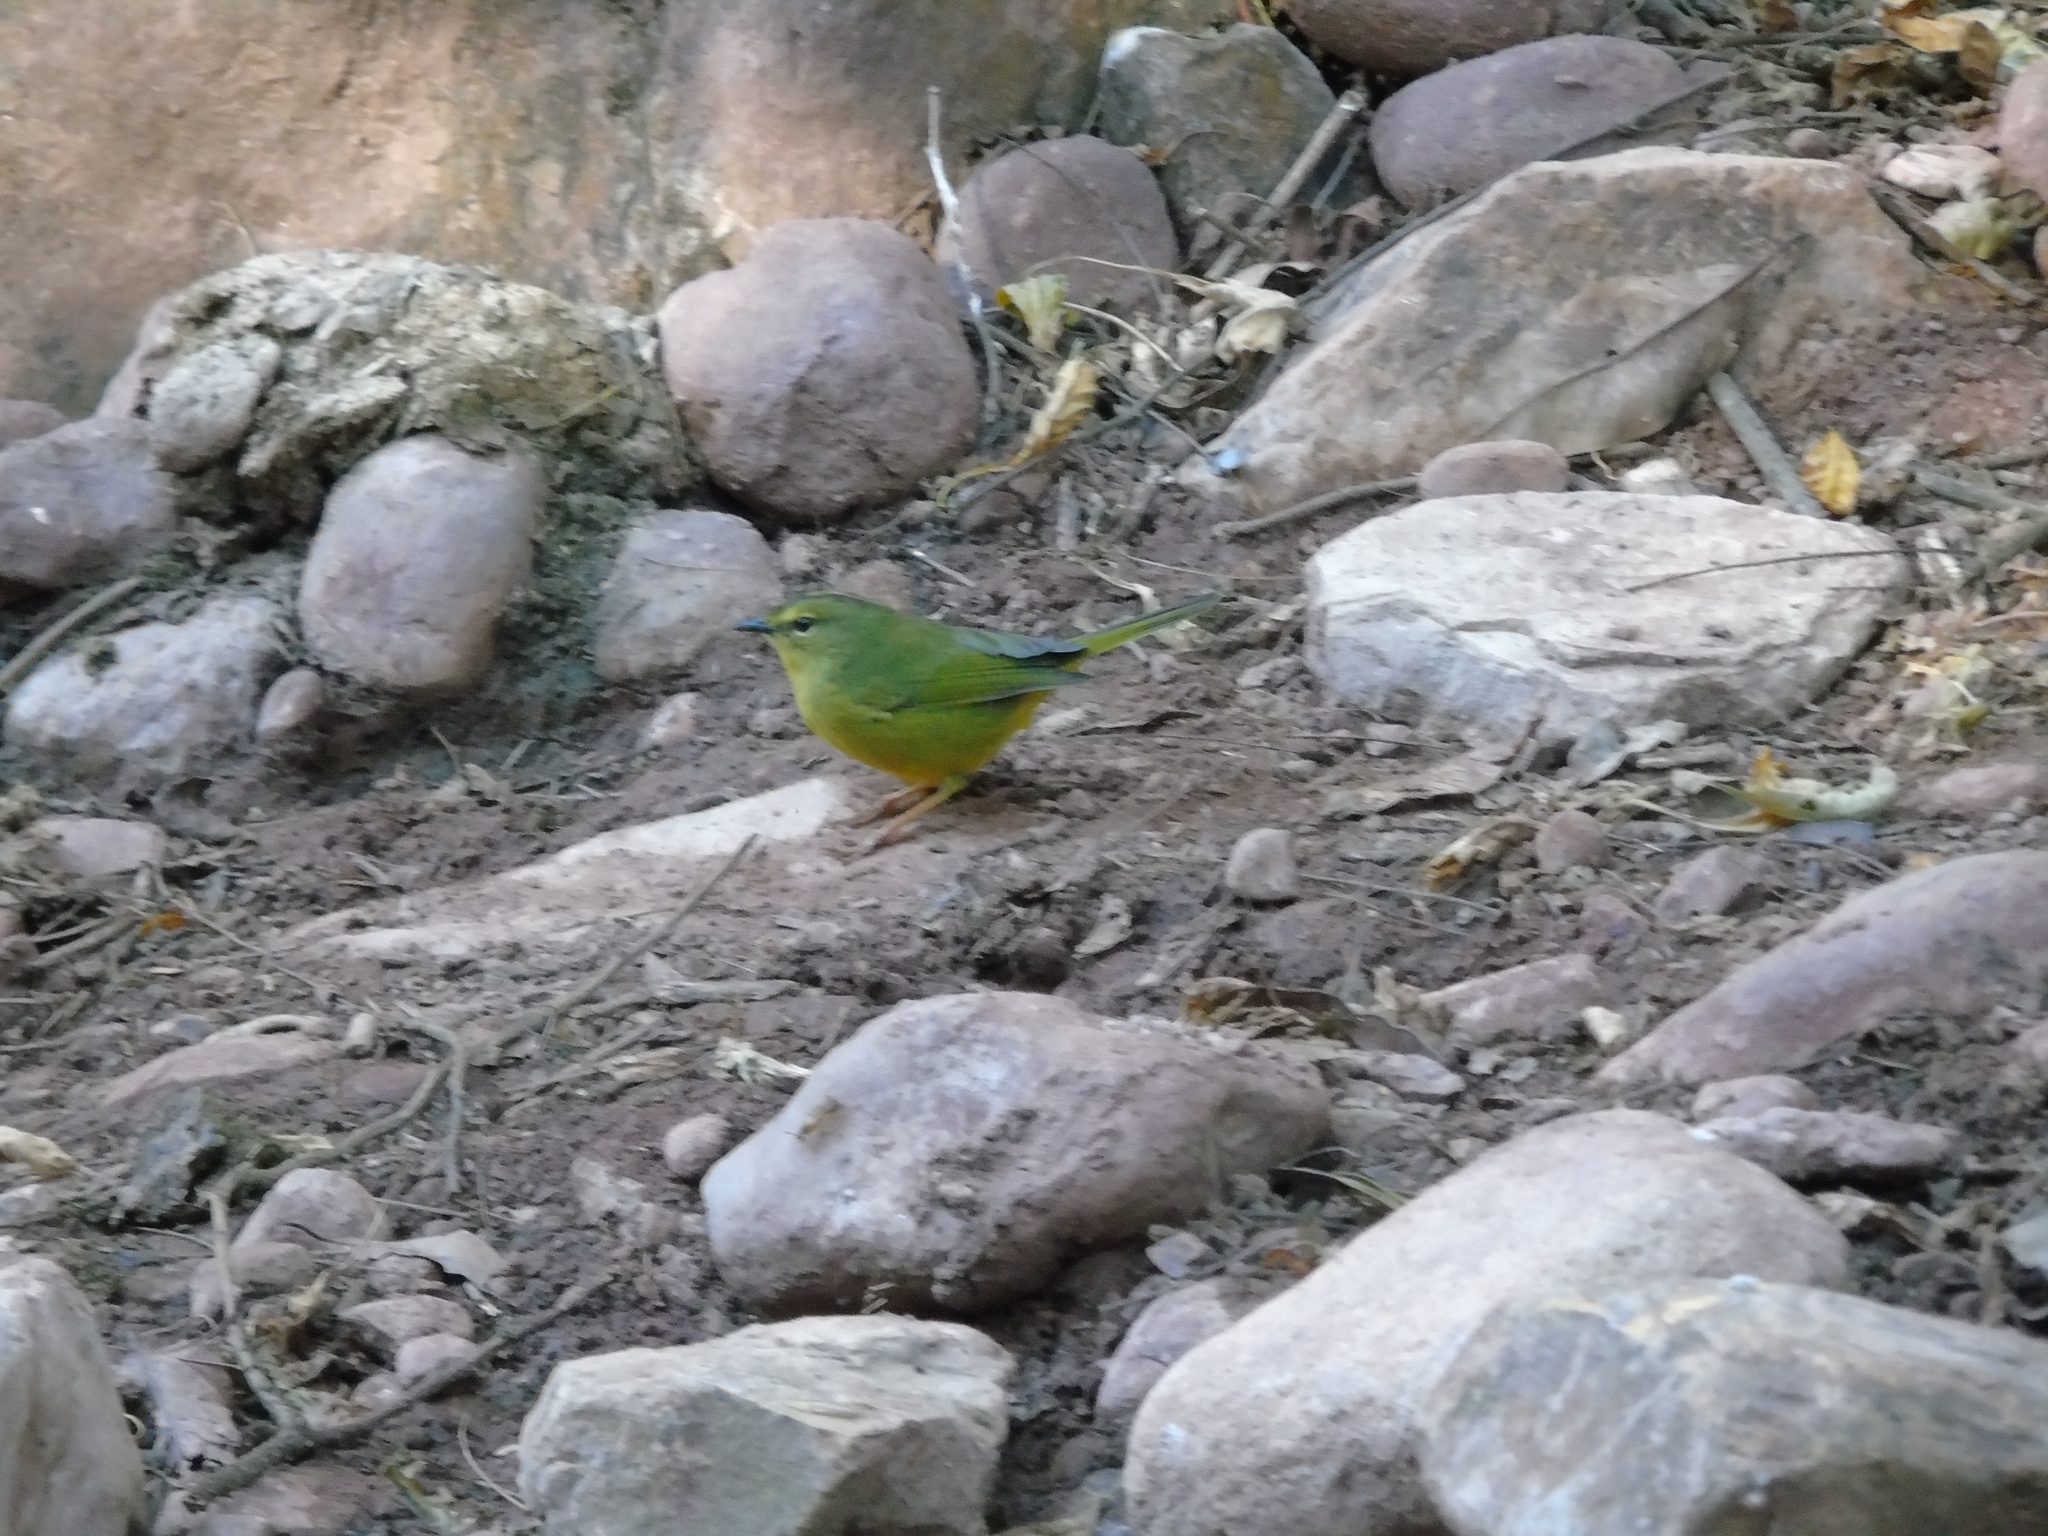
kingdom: Animalia
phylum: Chordata
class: Aves
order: Passeriformes
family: Parulidae
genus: Myiothlypis
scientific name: Myiothlypis bivittata
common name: Two-banded warbler
